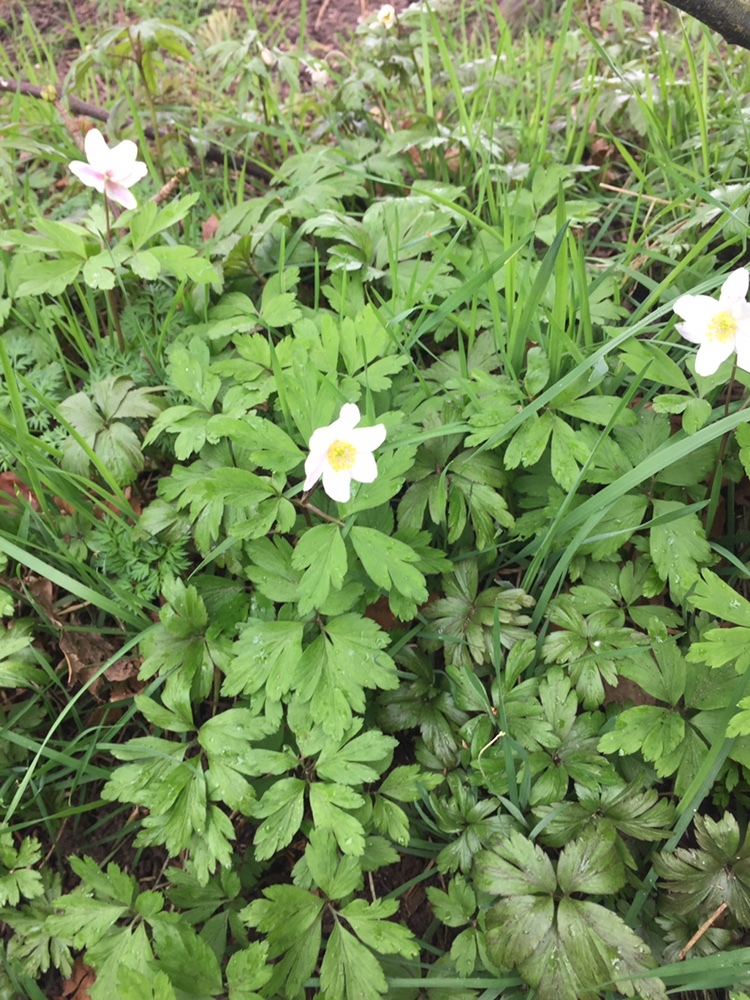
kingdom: Plantae
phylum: Tracheophyta
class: Magnoliopsida
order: Ranunculales
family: Ranunculaceae
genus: Anemone
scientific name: Anemone nemorosa
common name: Wood anemone
